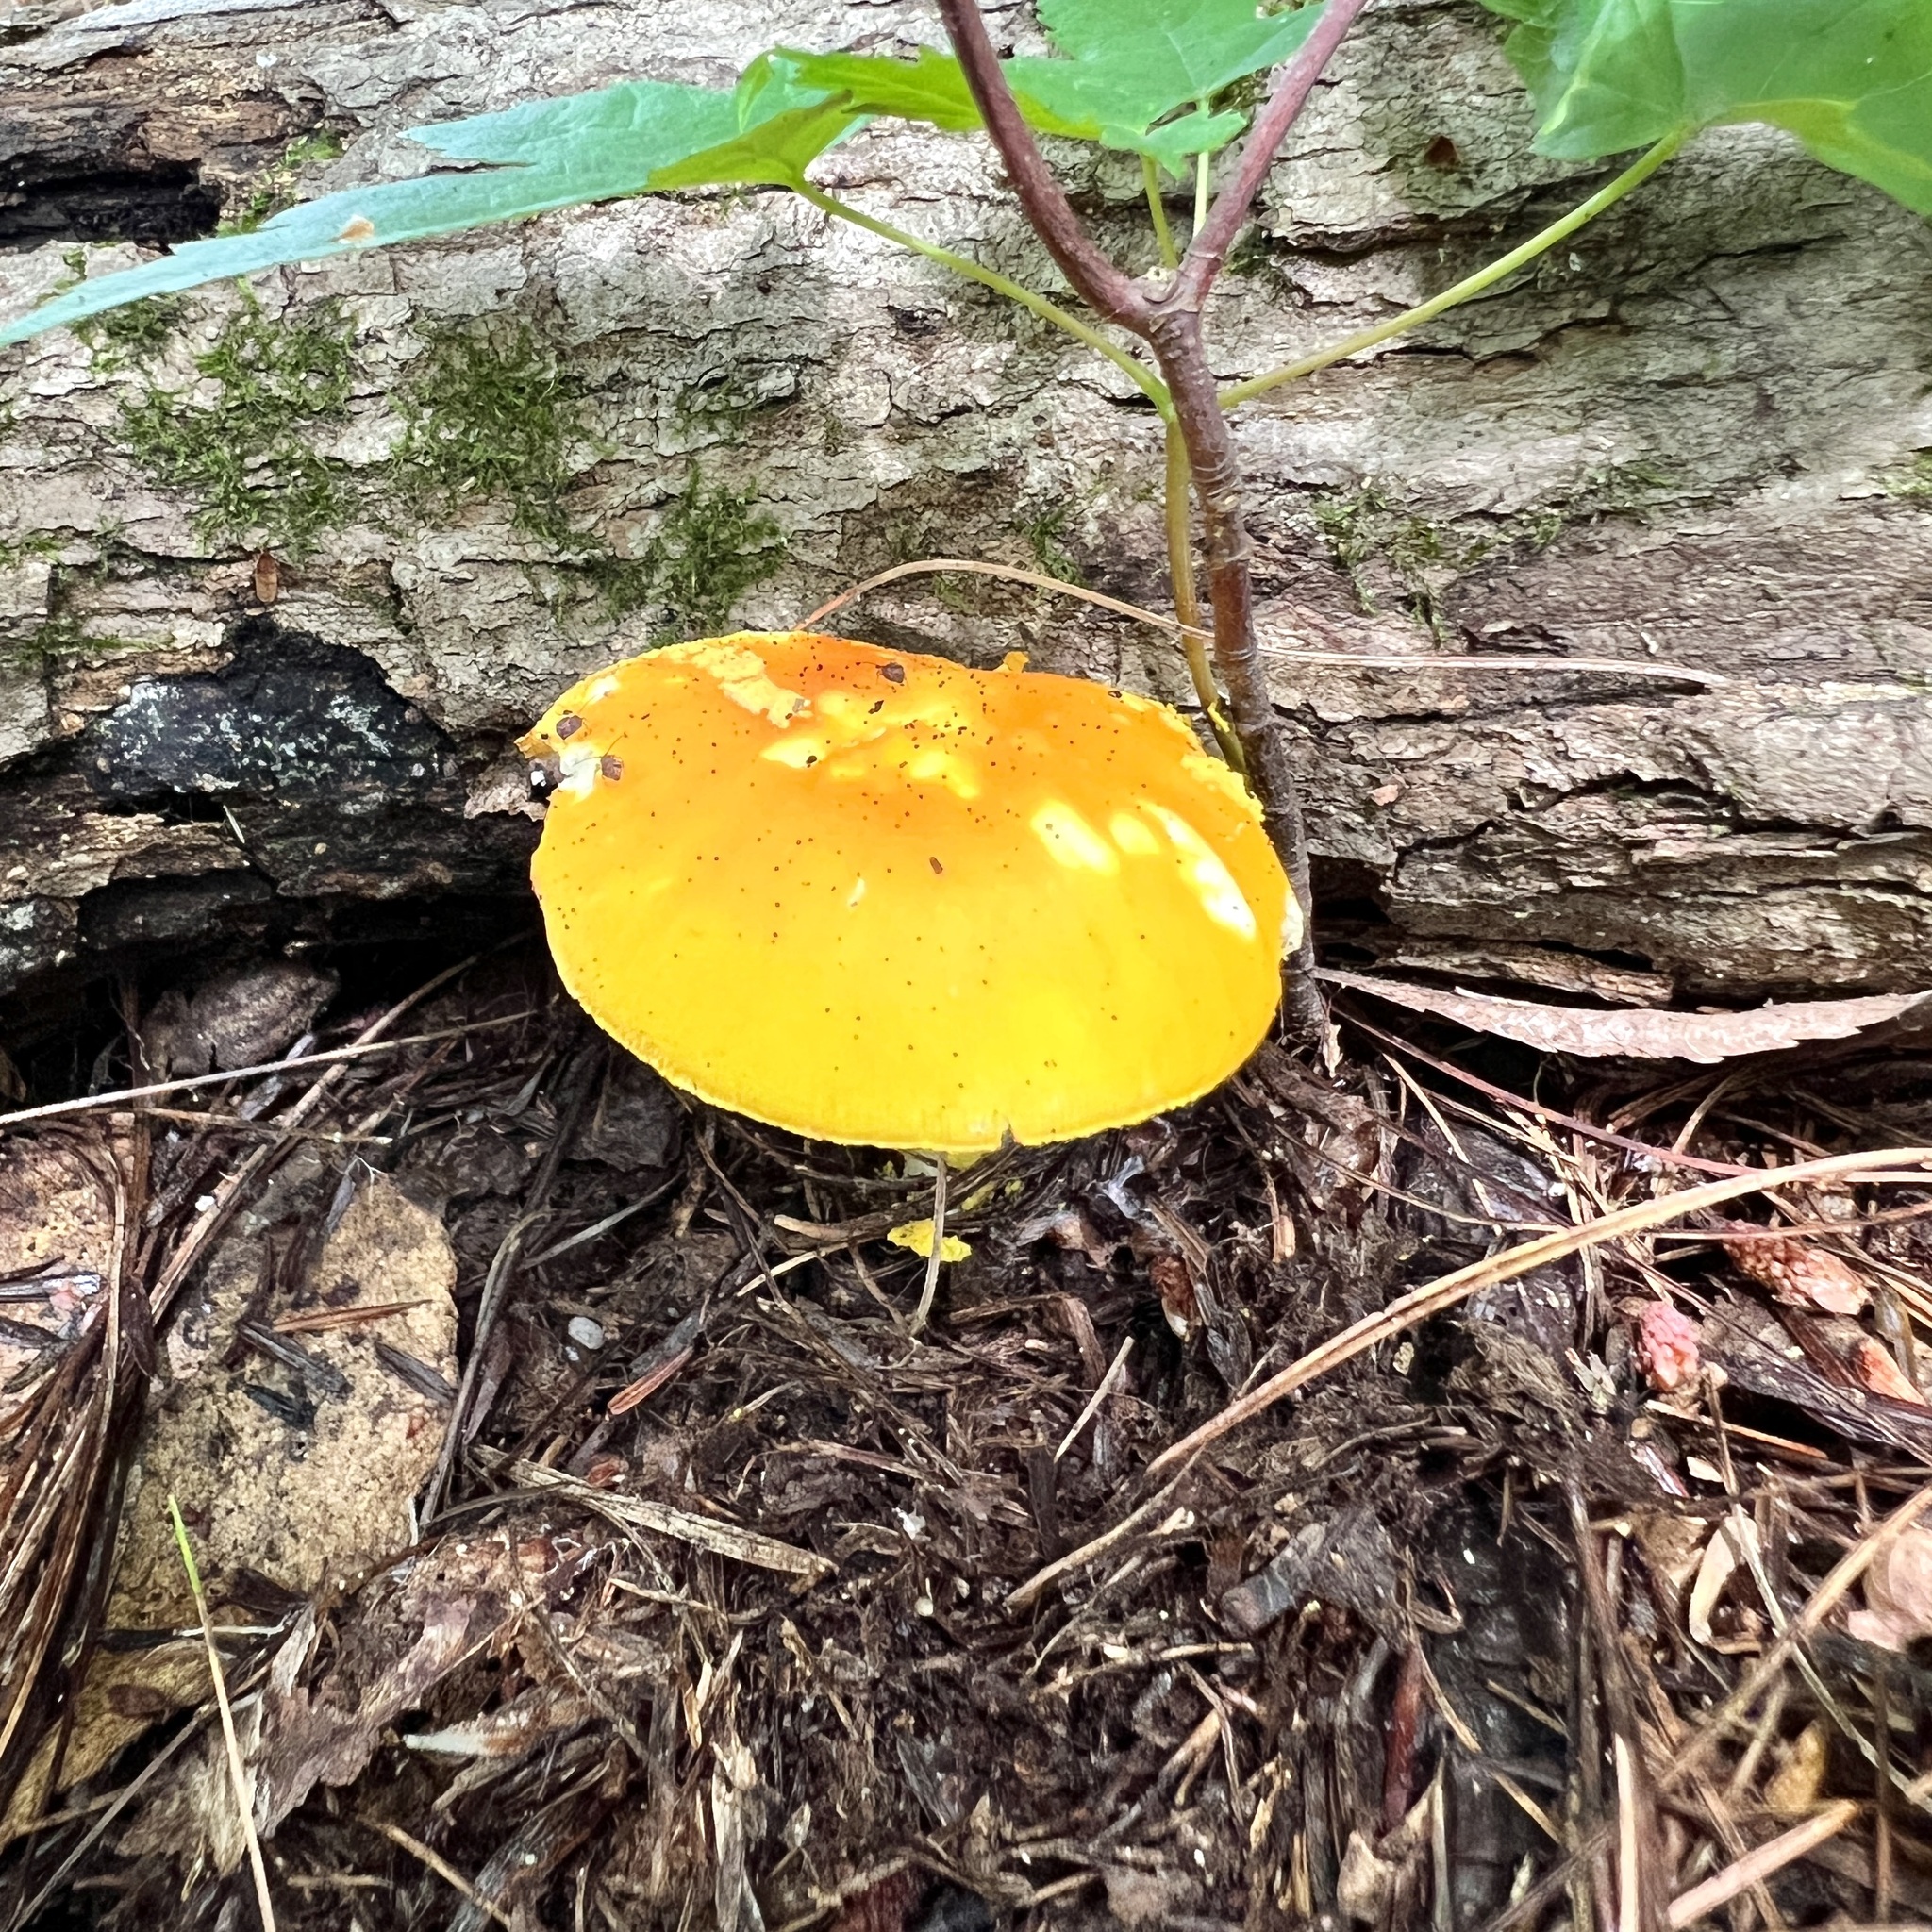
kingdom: Fungi
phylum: Basidiomycota
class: Agaricomycetes
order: Agaricales
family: Amanitaceae
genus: Amanita
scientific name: Amanita flavoconia
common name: Yellow patches
